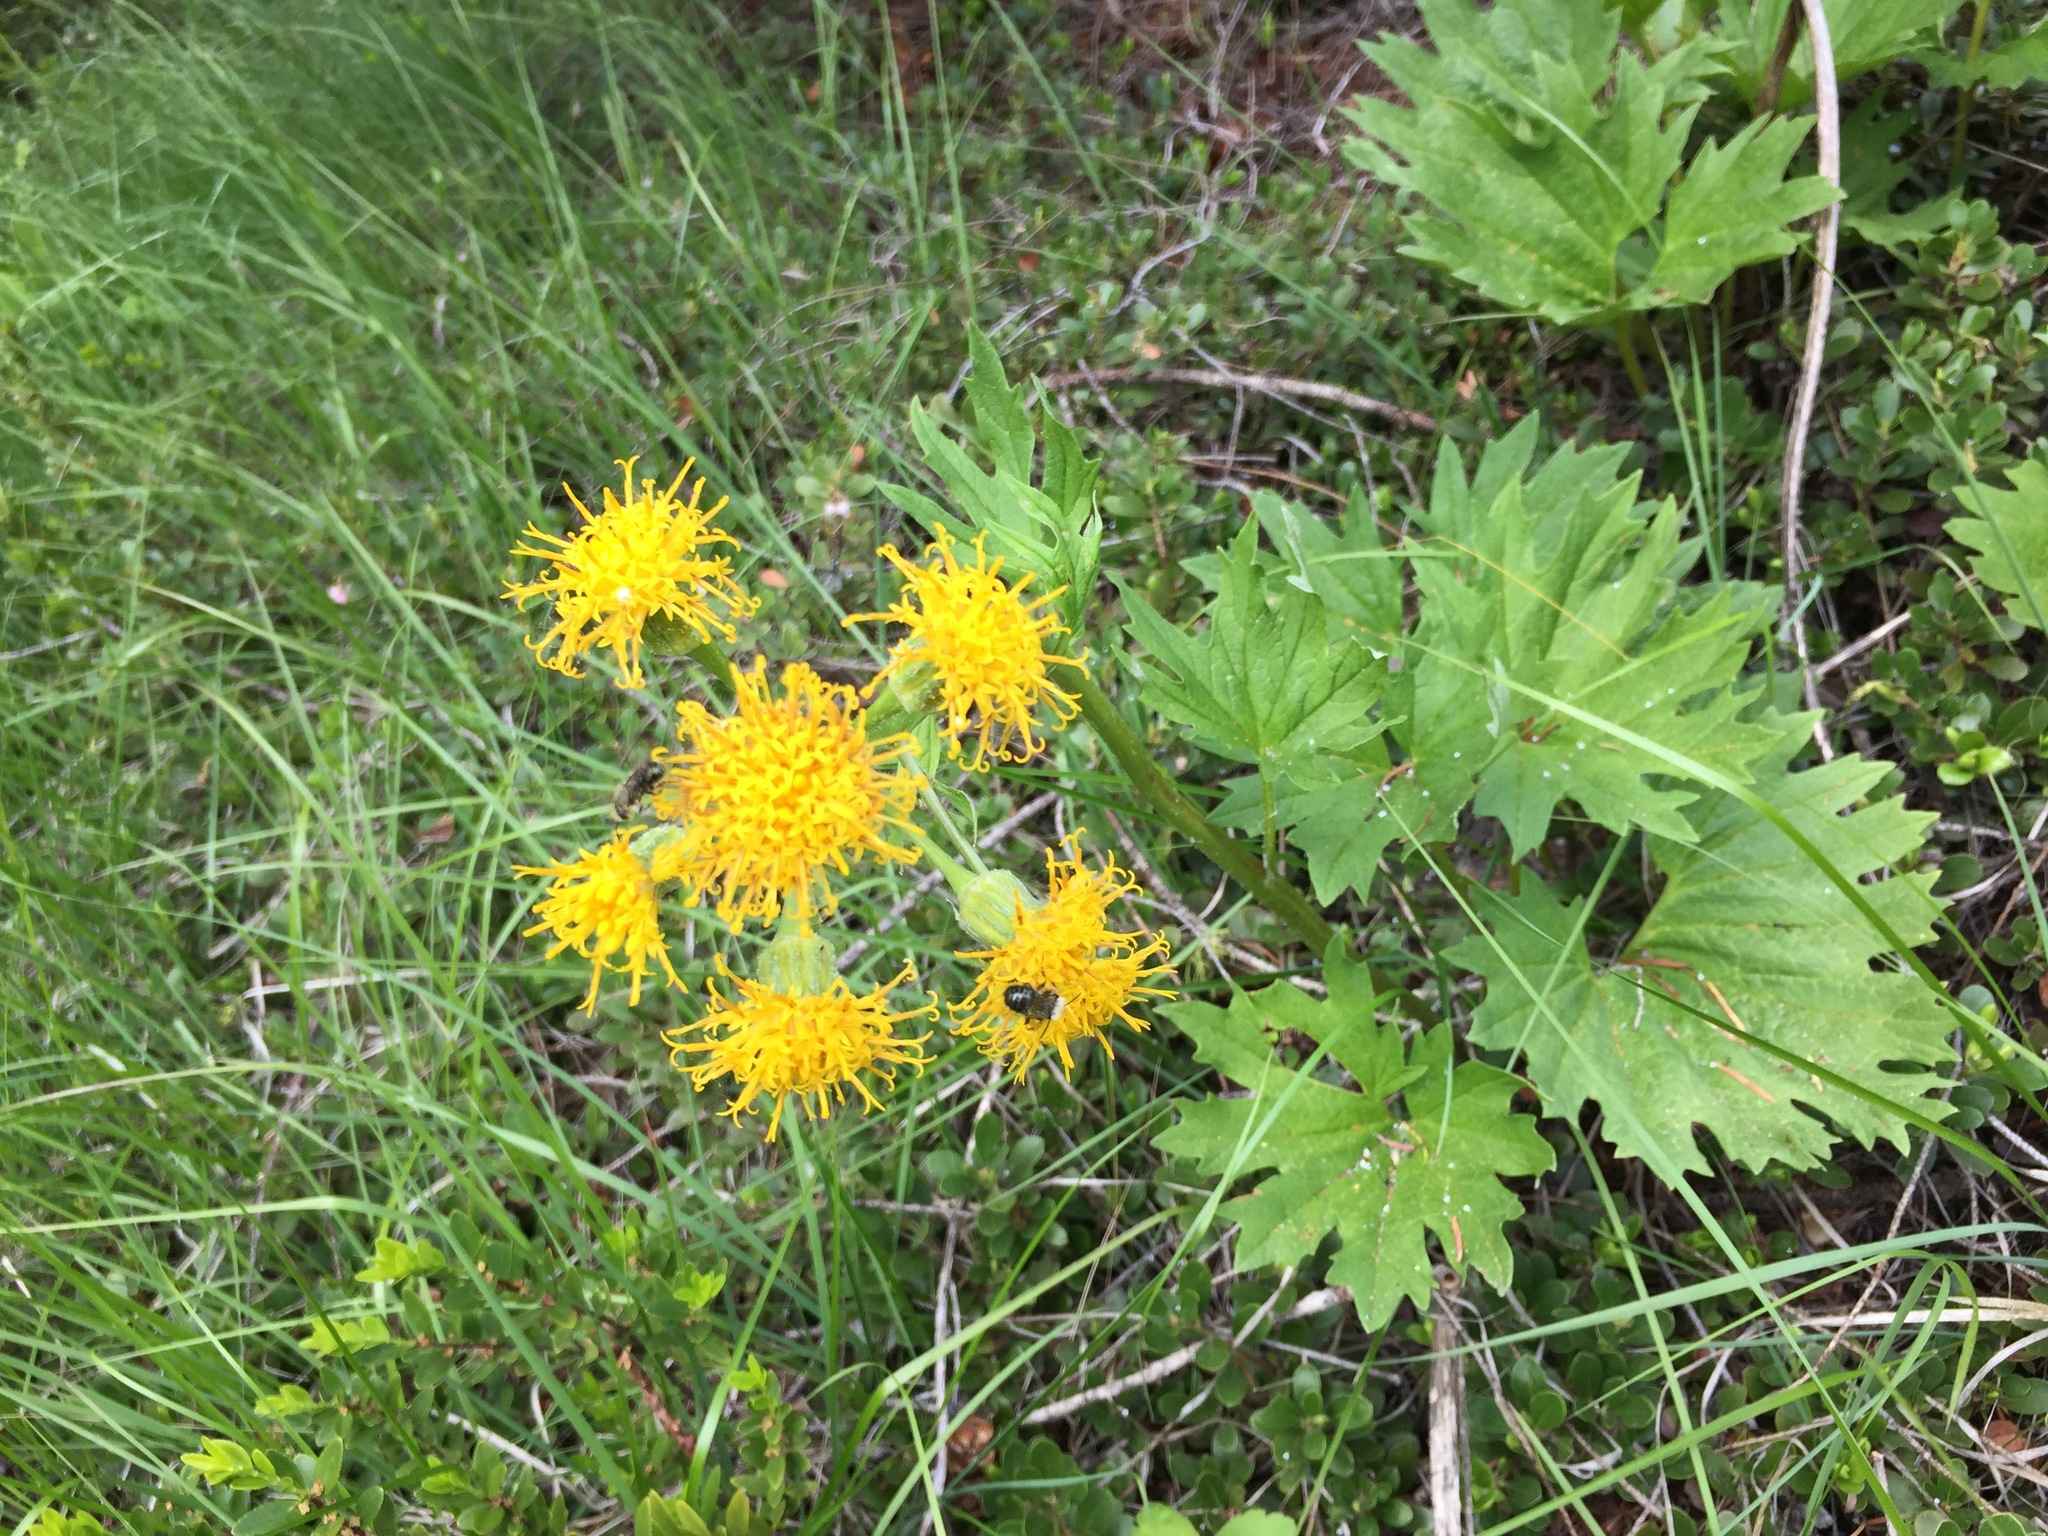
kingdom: Plantae
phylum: Tracheophyta
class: Magnoliopsida
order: Asterales
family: Asteraceae
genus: Cacaliopsis
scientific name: Cacaliopsis nardosmia
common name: Silvercrown
